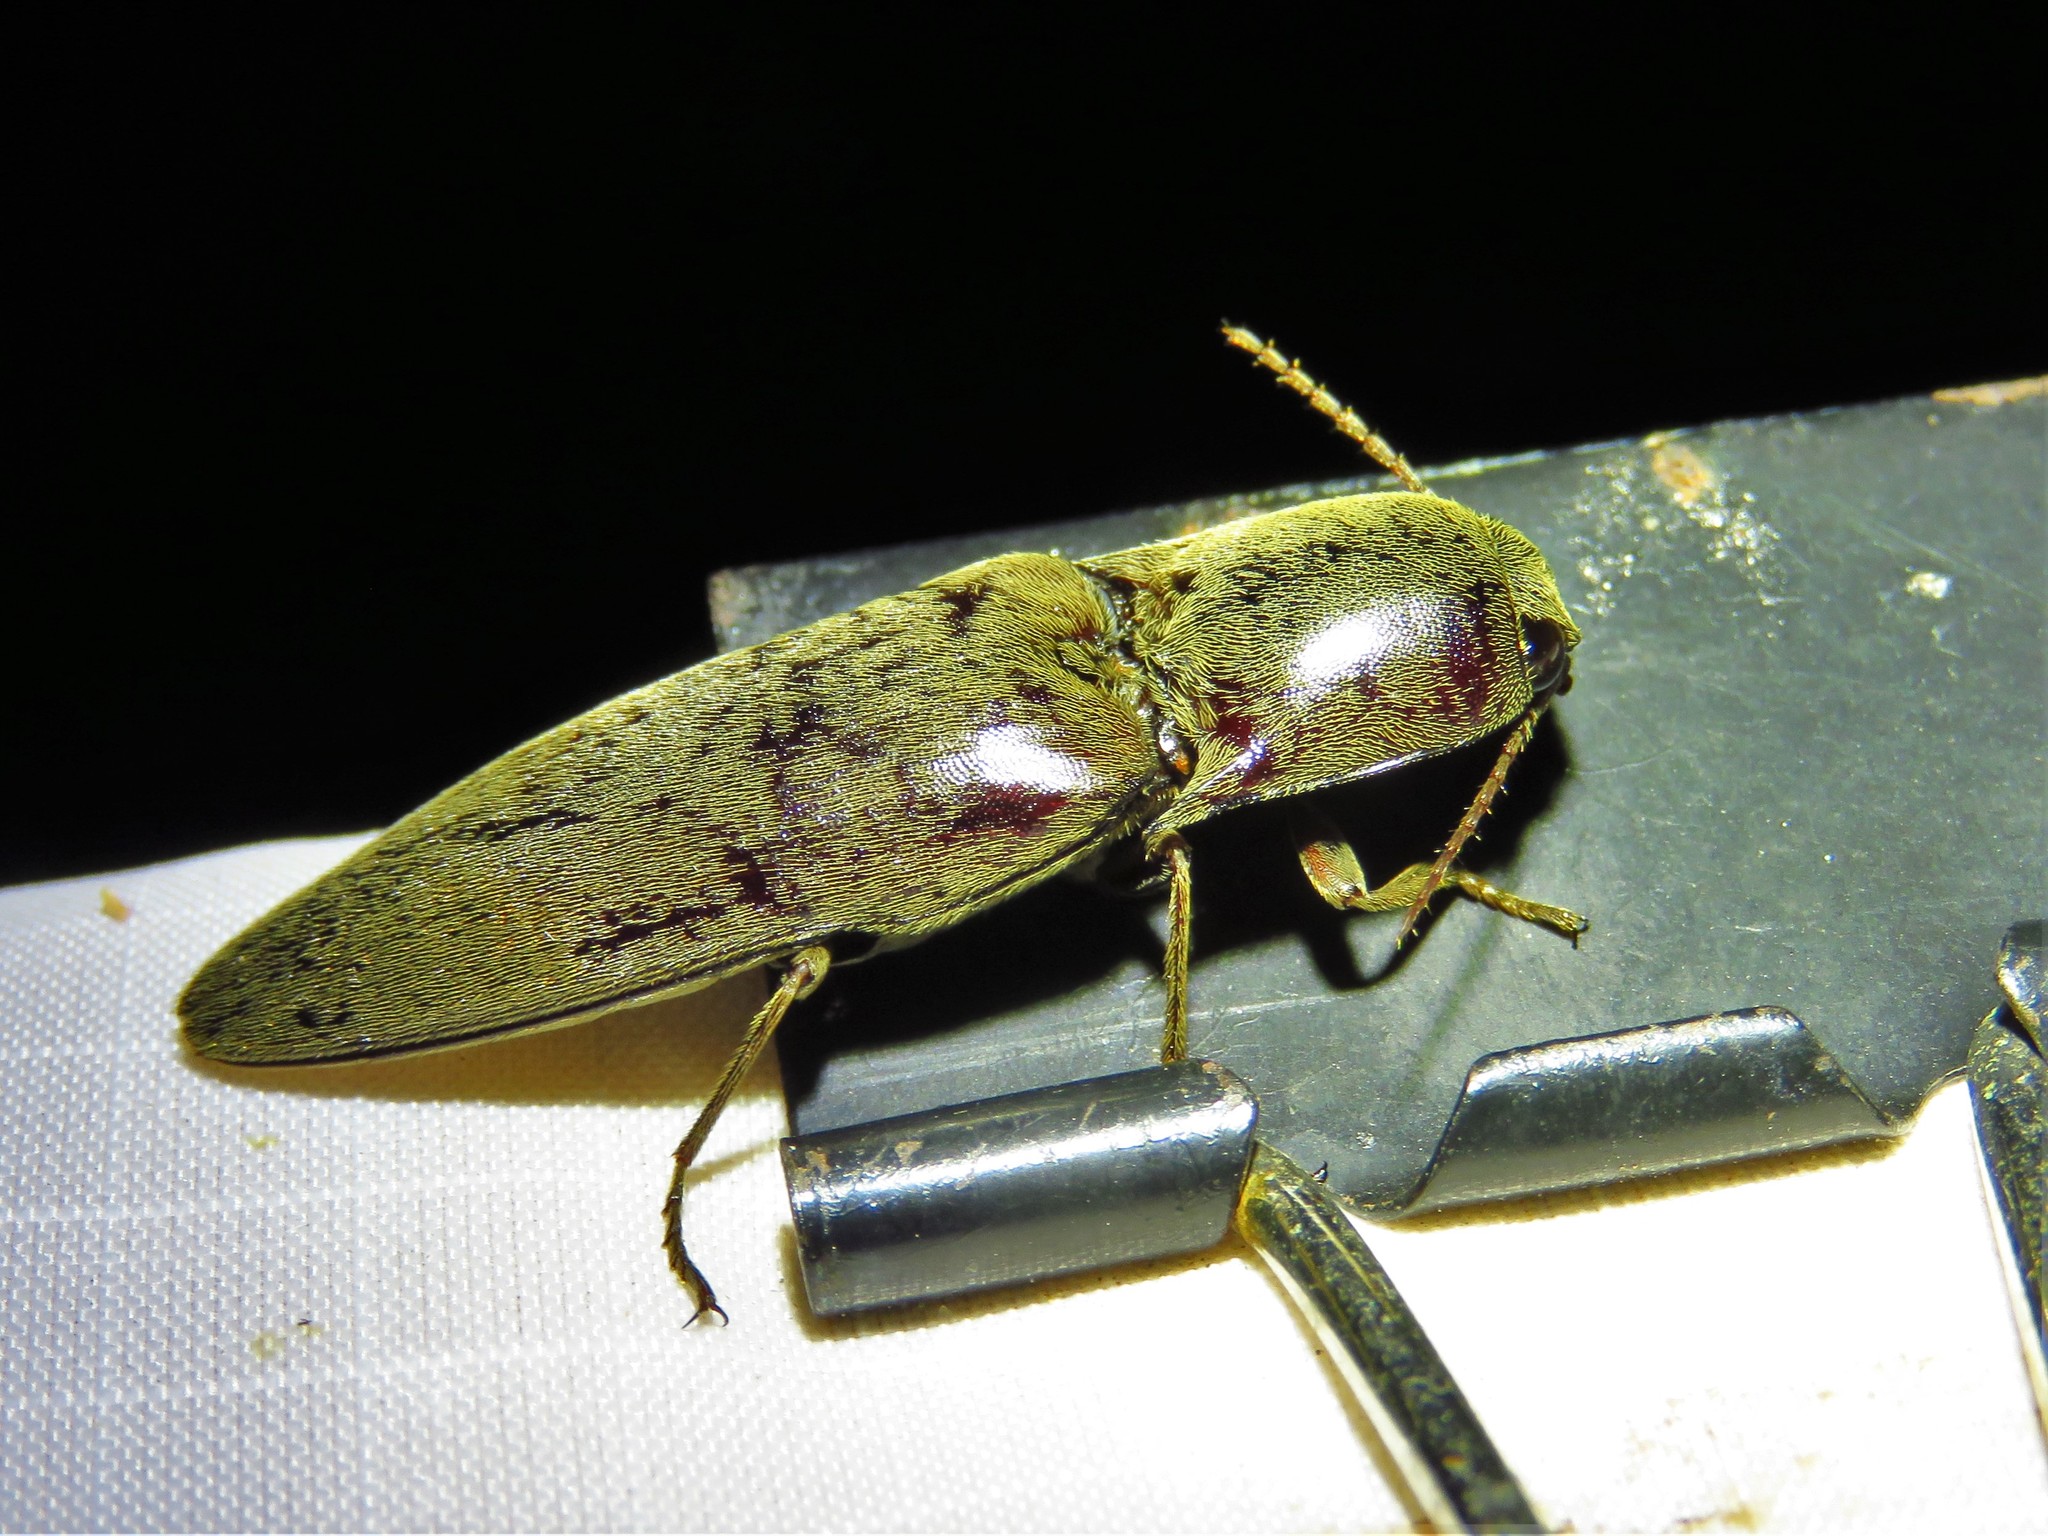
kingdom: Animalia
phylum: Arthropoda
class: Insecta
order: Coleoptera
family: Elateridae
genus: Orthostethus
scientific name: Orthostethus infuscatus
